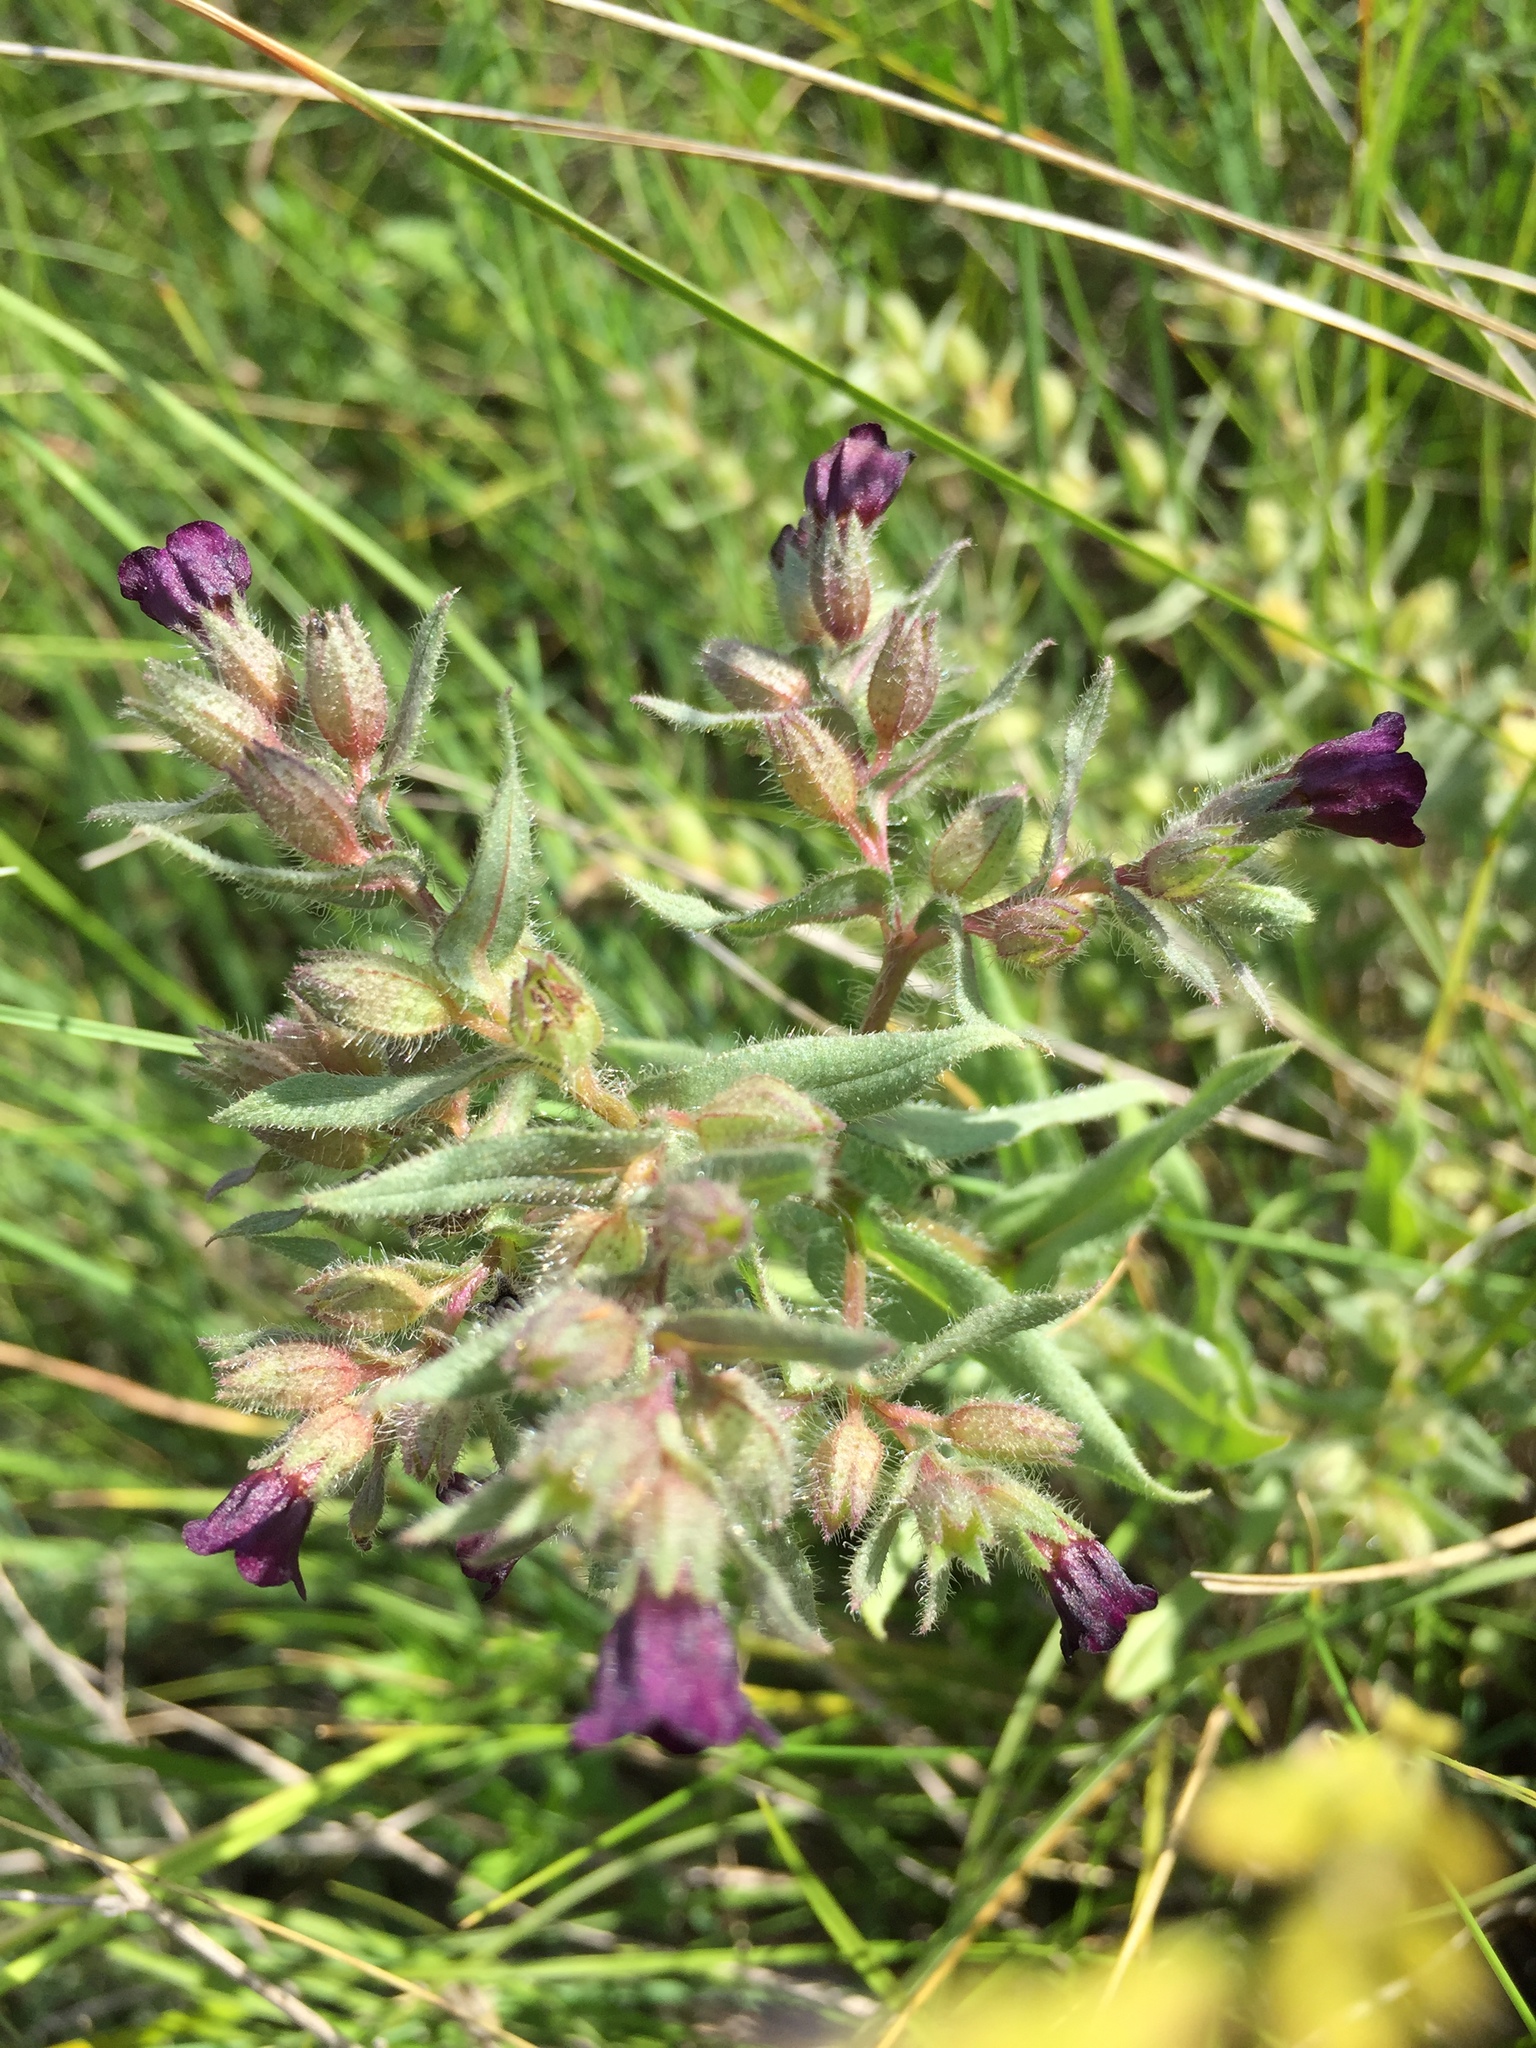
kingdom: Plantae
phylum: Tracheophyta
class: Magnoliopsida
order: Boraginales
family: Boraginaceae
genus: Nonea
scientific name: Nonea pulla
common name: Brown nonea
